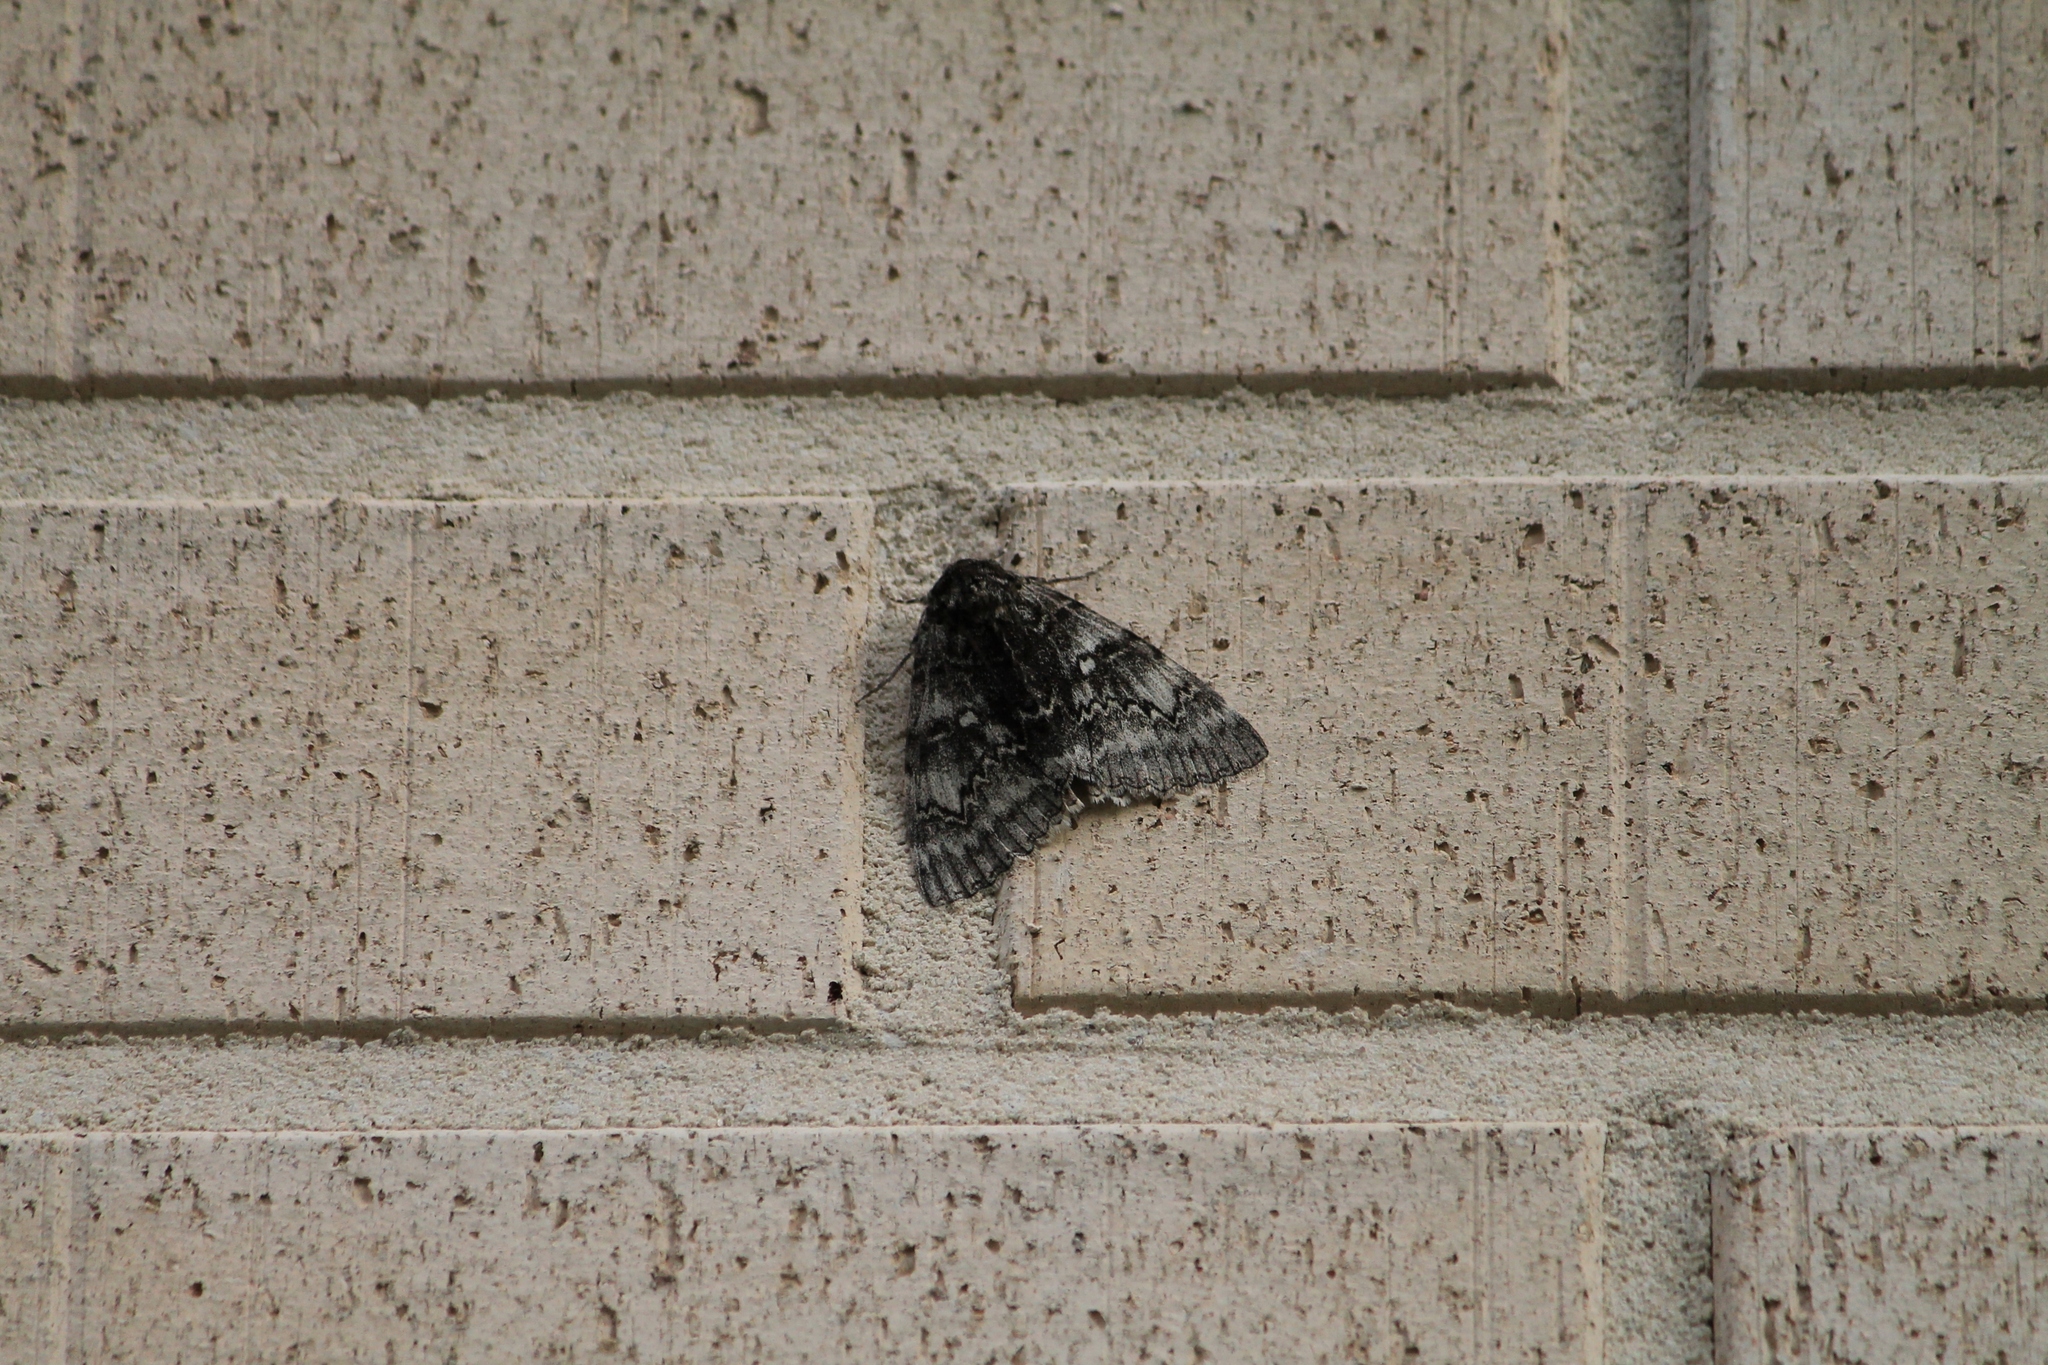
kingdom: Animalia
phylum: Arthropoda
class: Insecta
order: Lepidoptera
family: Erebidae
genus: Catocala
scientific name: Catocala fraxini
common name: Clifden nonpareil
